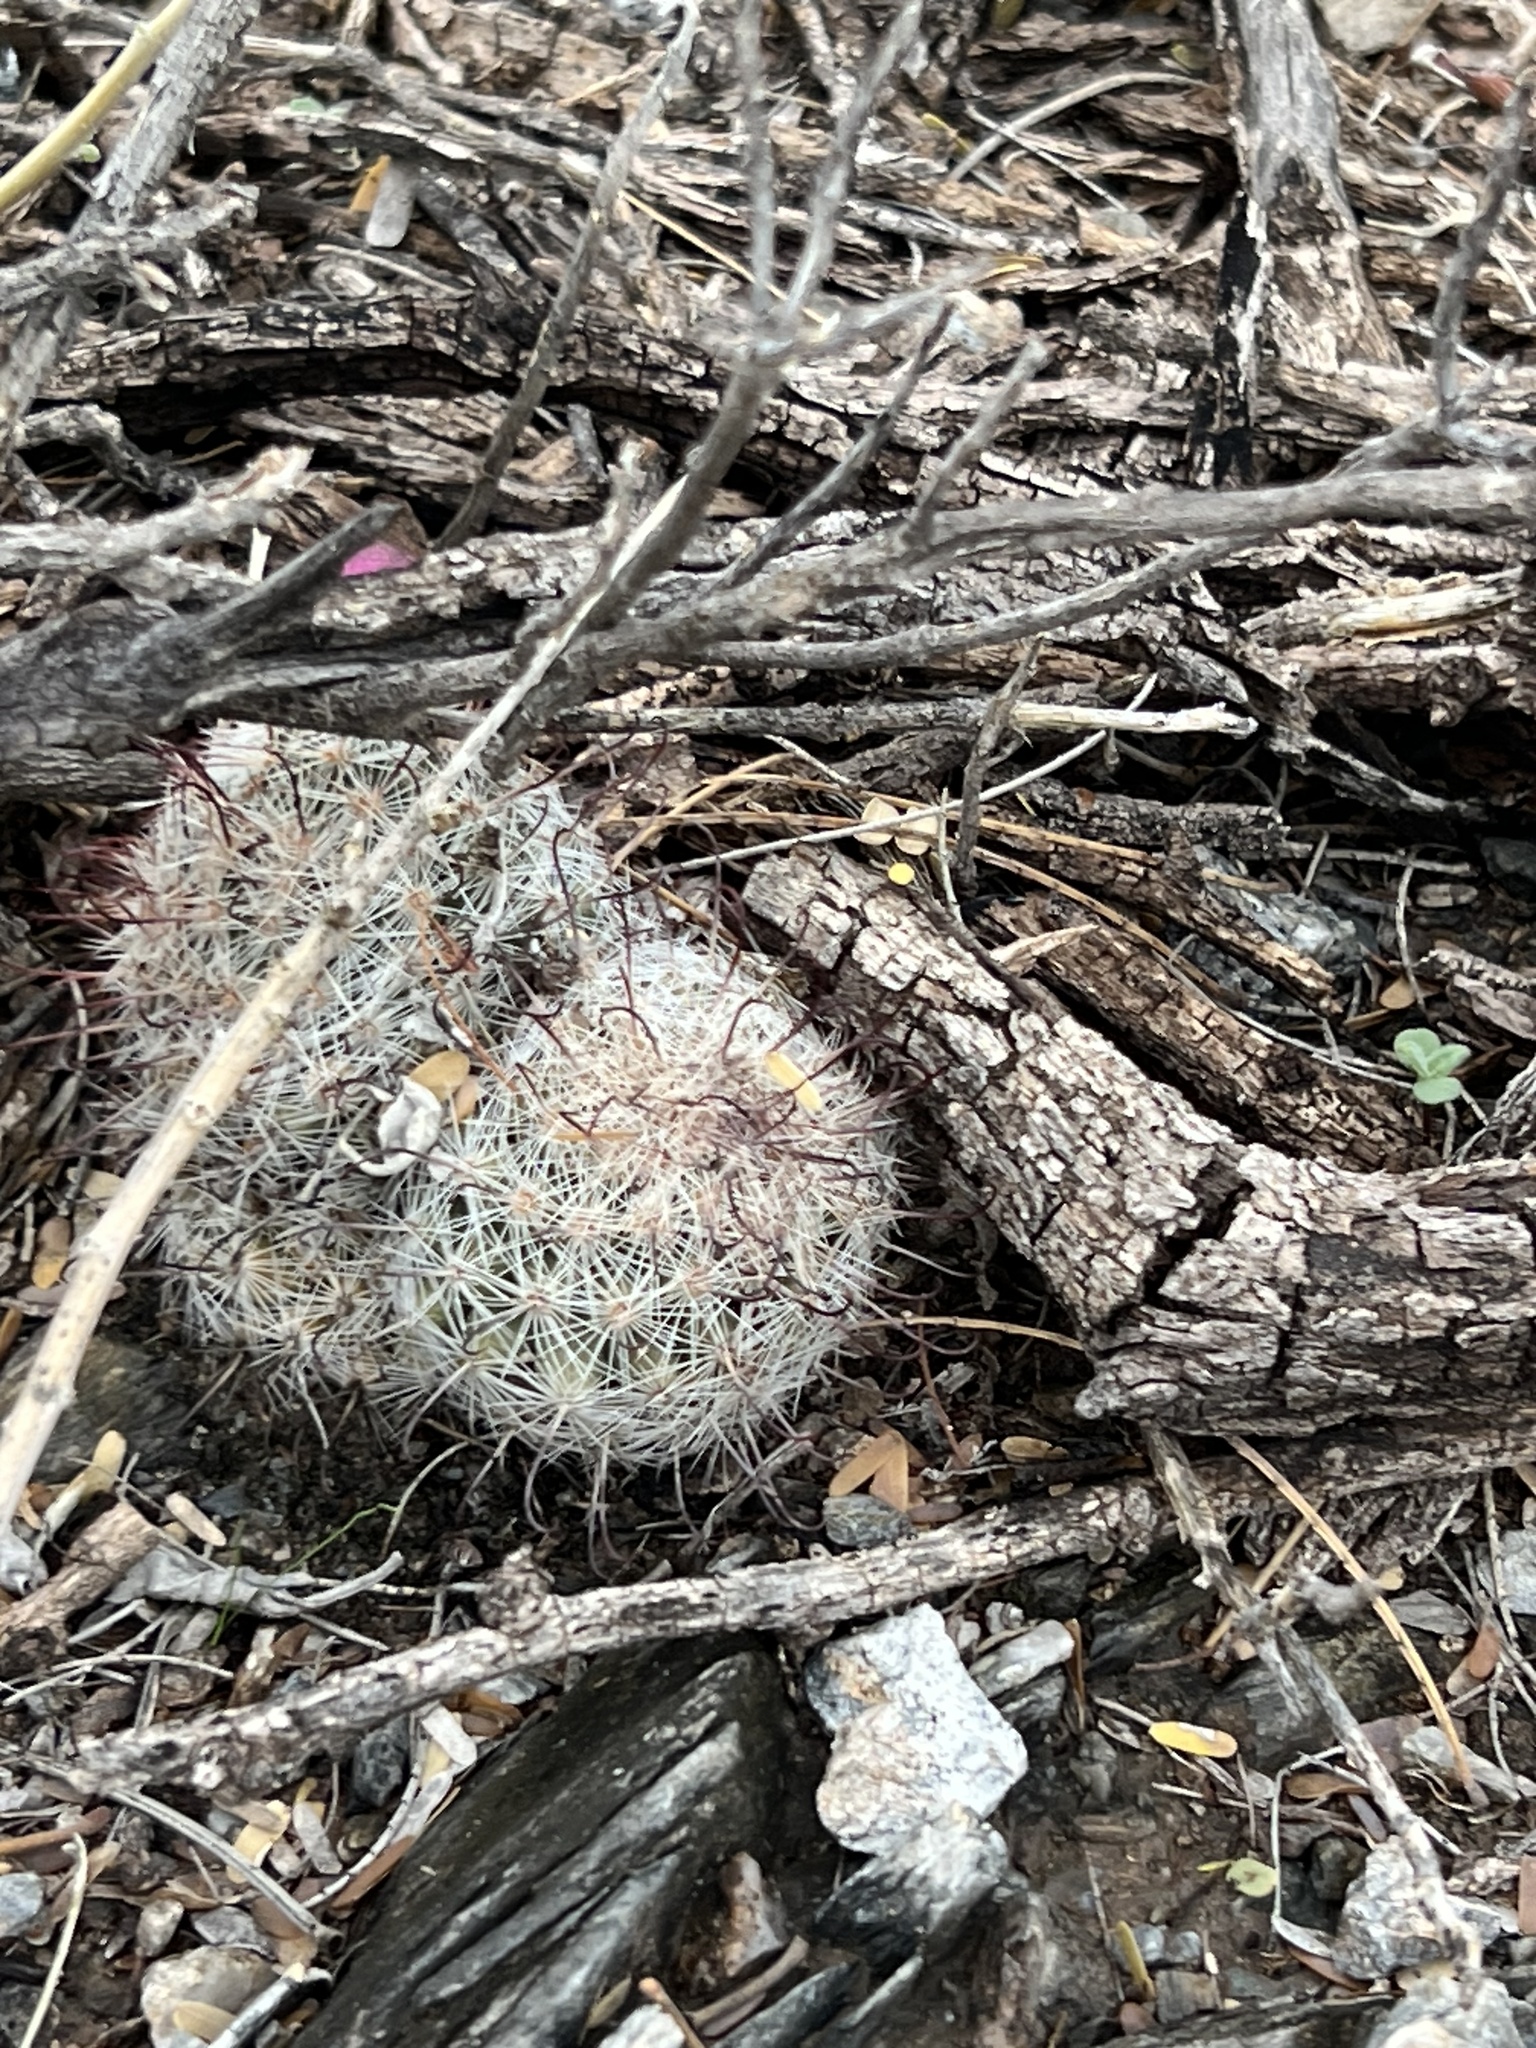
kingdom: Plantae
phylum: Tracheophyta
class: Magnoliopsida
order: Caryophyllales
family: Cactaceae
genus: Cochemiea
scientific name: Cochemiea grahamii
